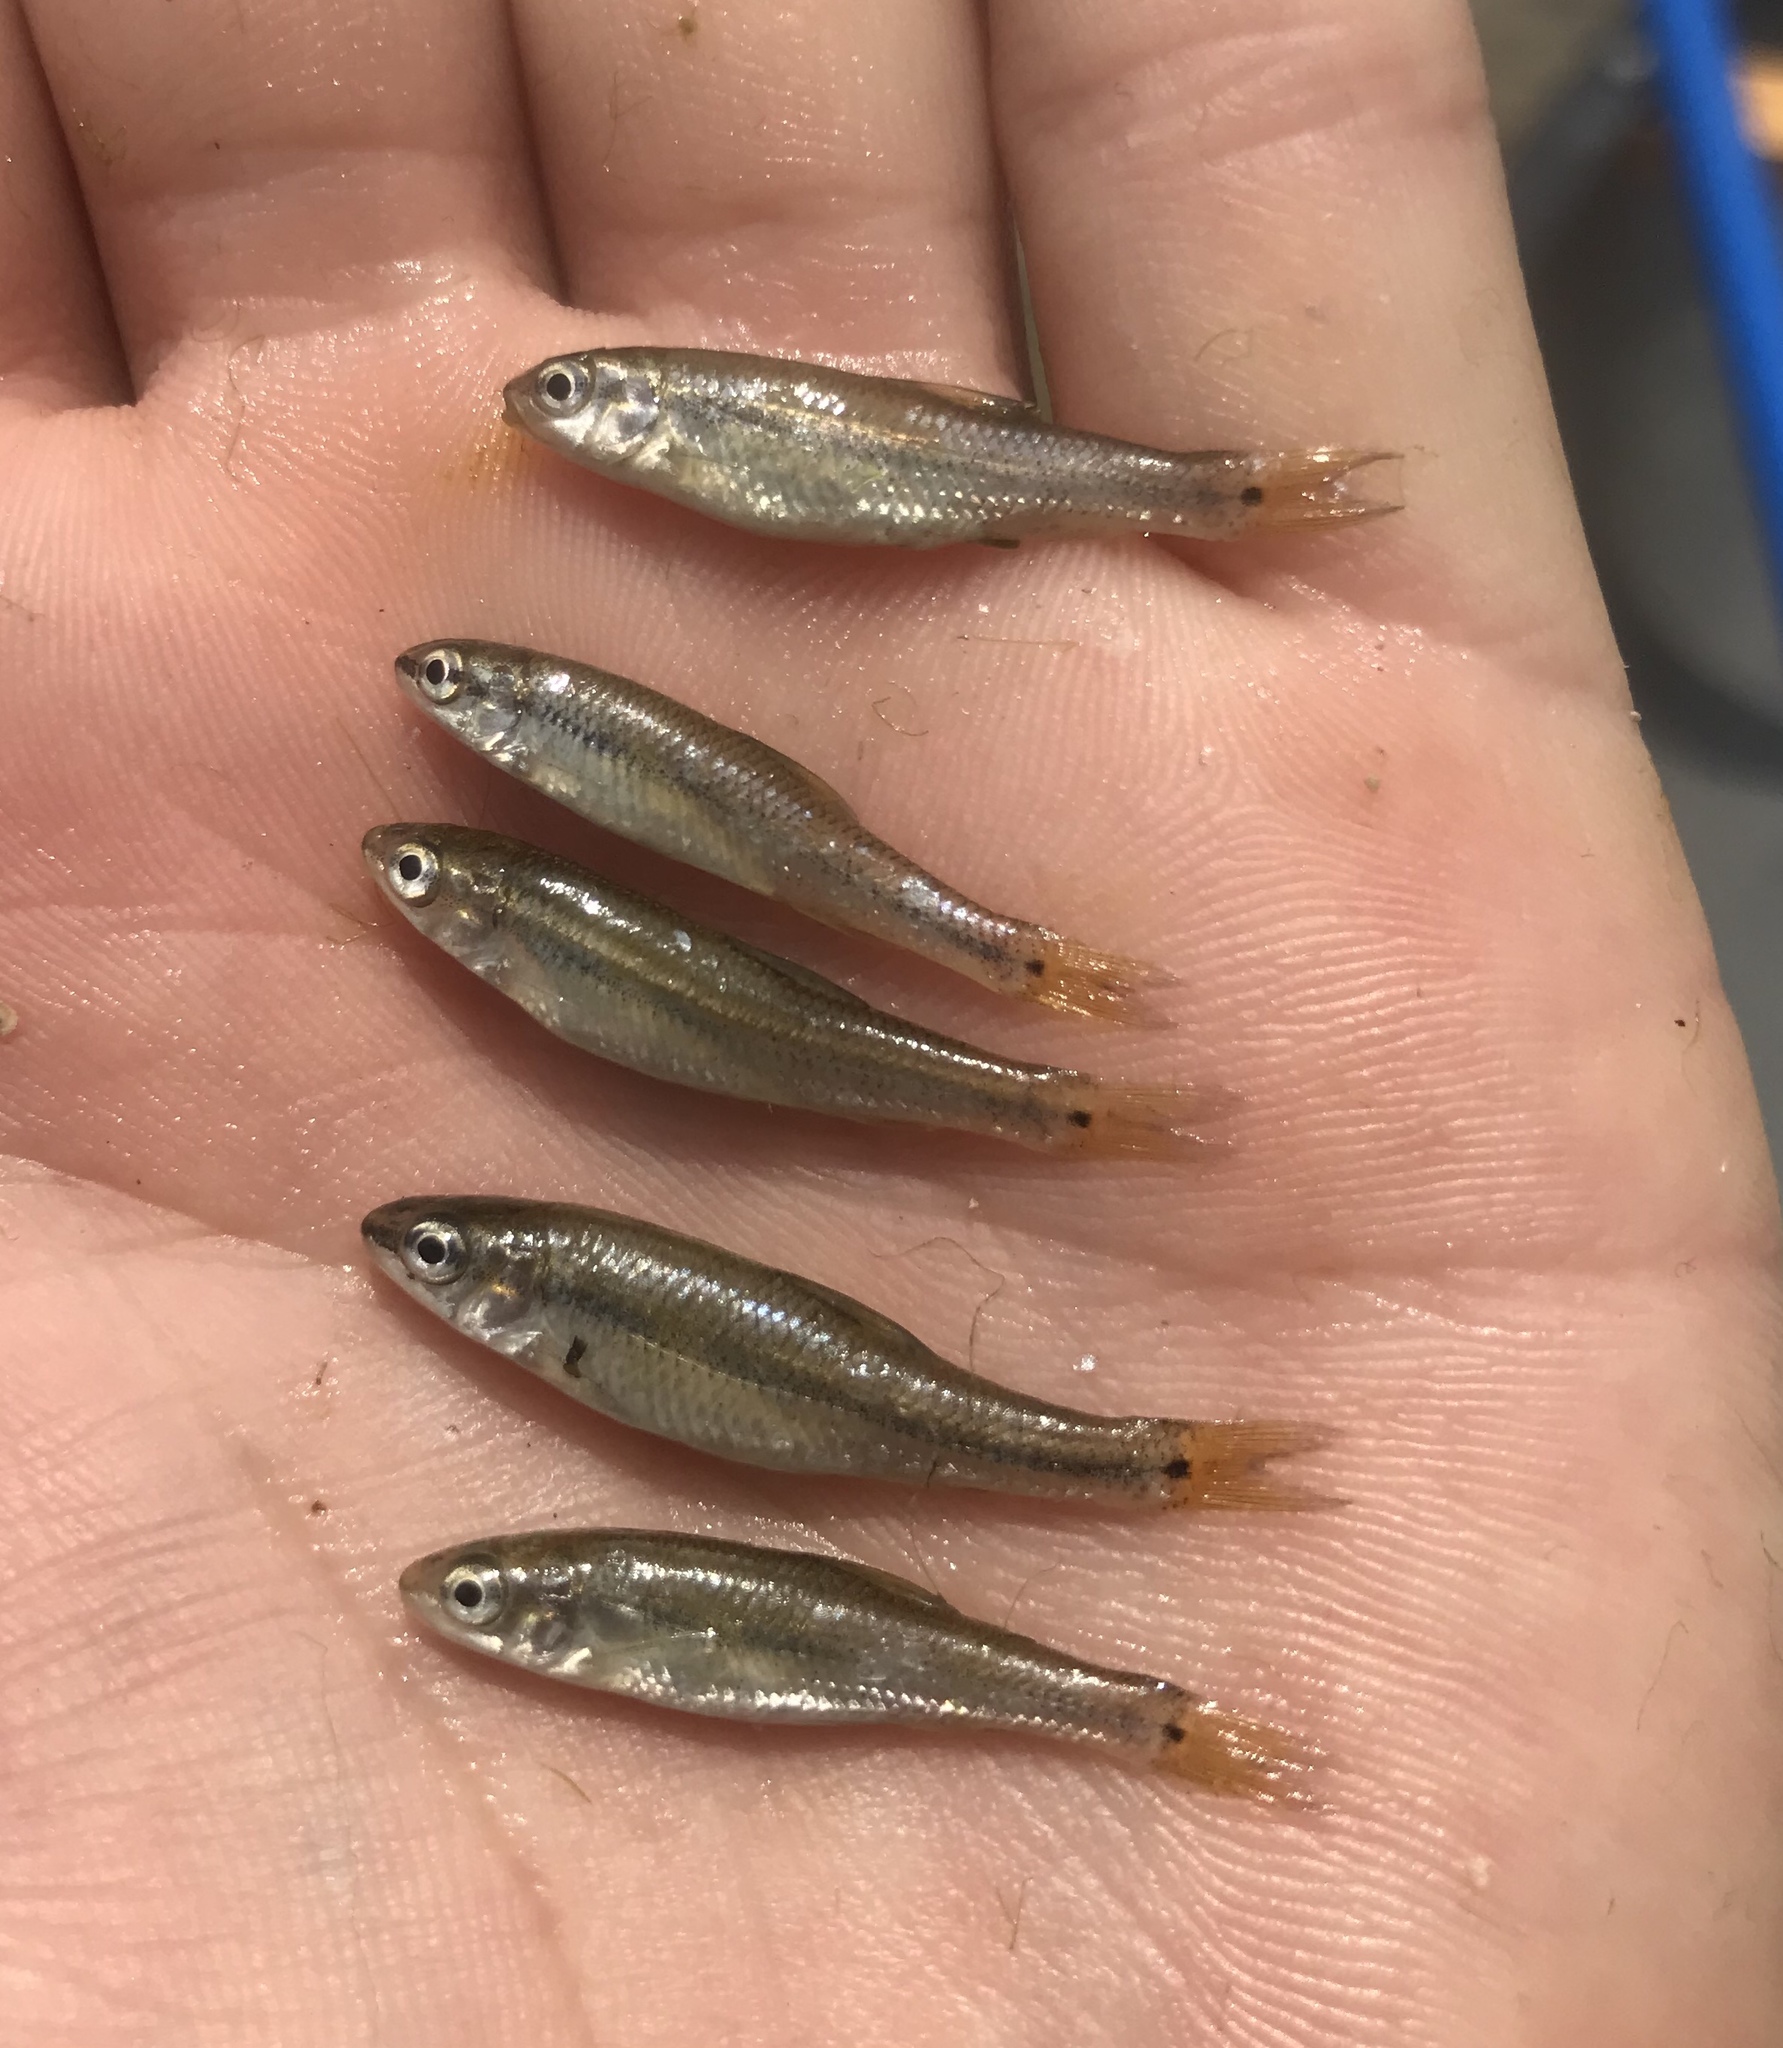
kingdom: Animalia
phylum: Chordata
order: Cypriniformes
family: Cyprinidae
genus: Dionda
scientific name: Dionda flavipinnis
